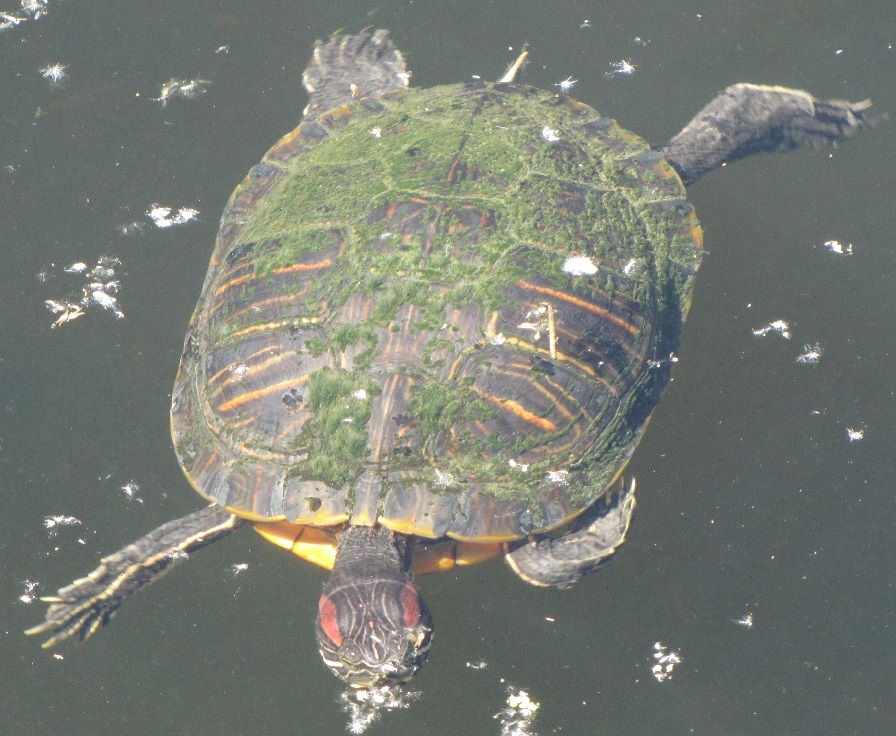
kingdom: Animalia
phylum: Chordata
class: Testudines
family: Emydidae
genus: Trachemys
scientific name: Trachemys scripta
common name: Slider
